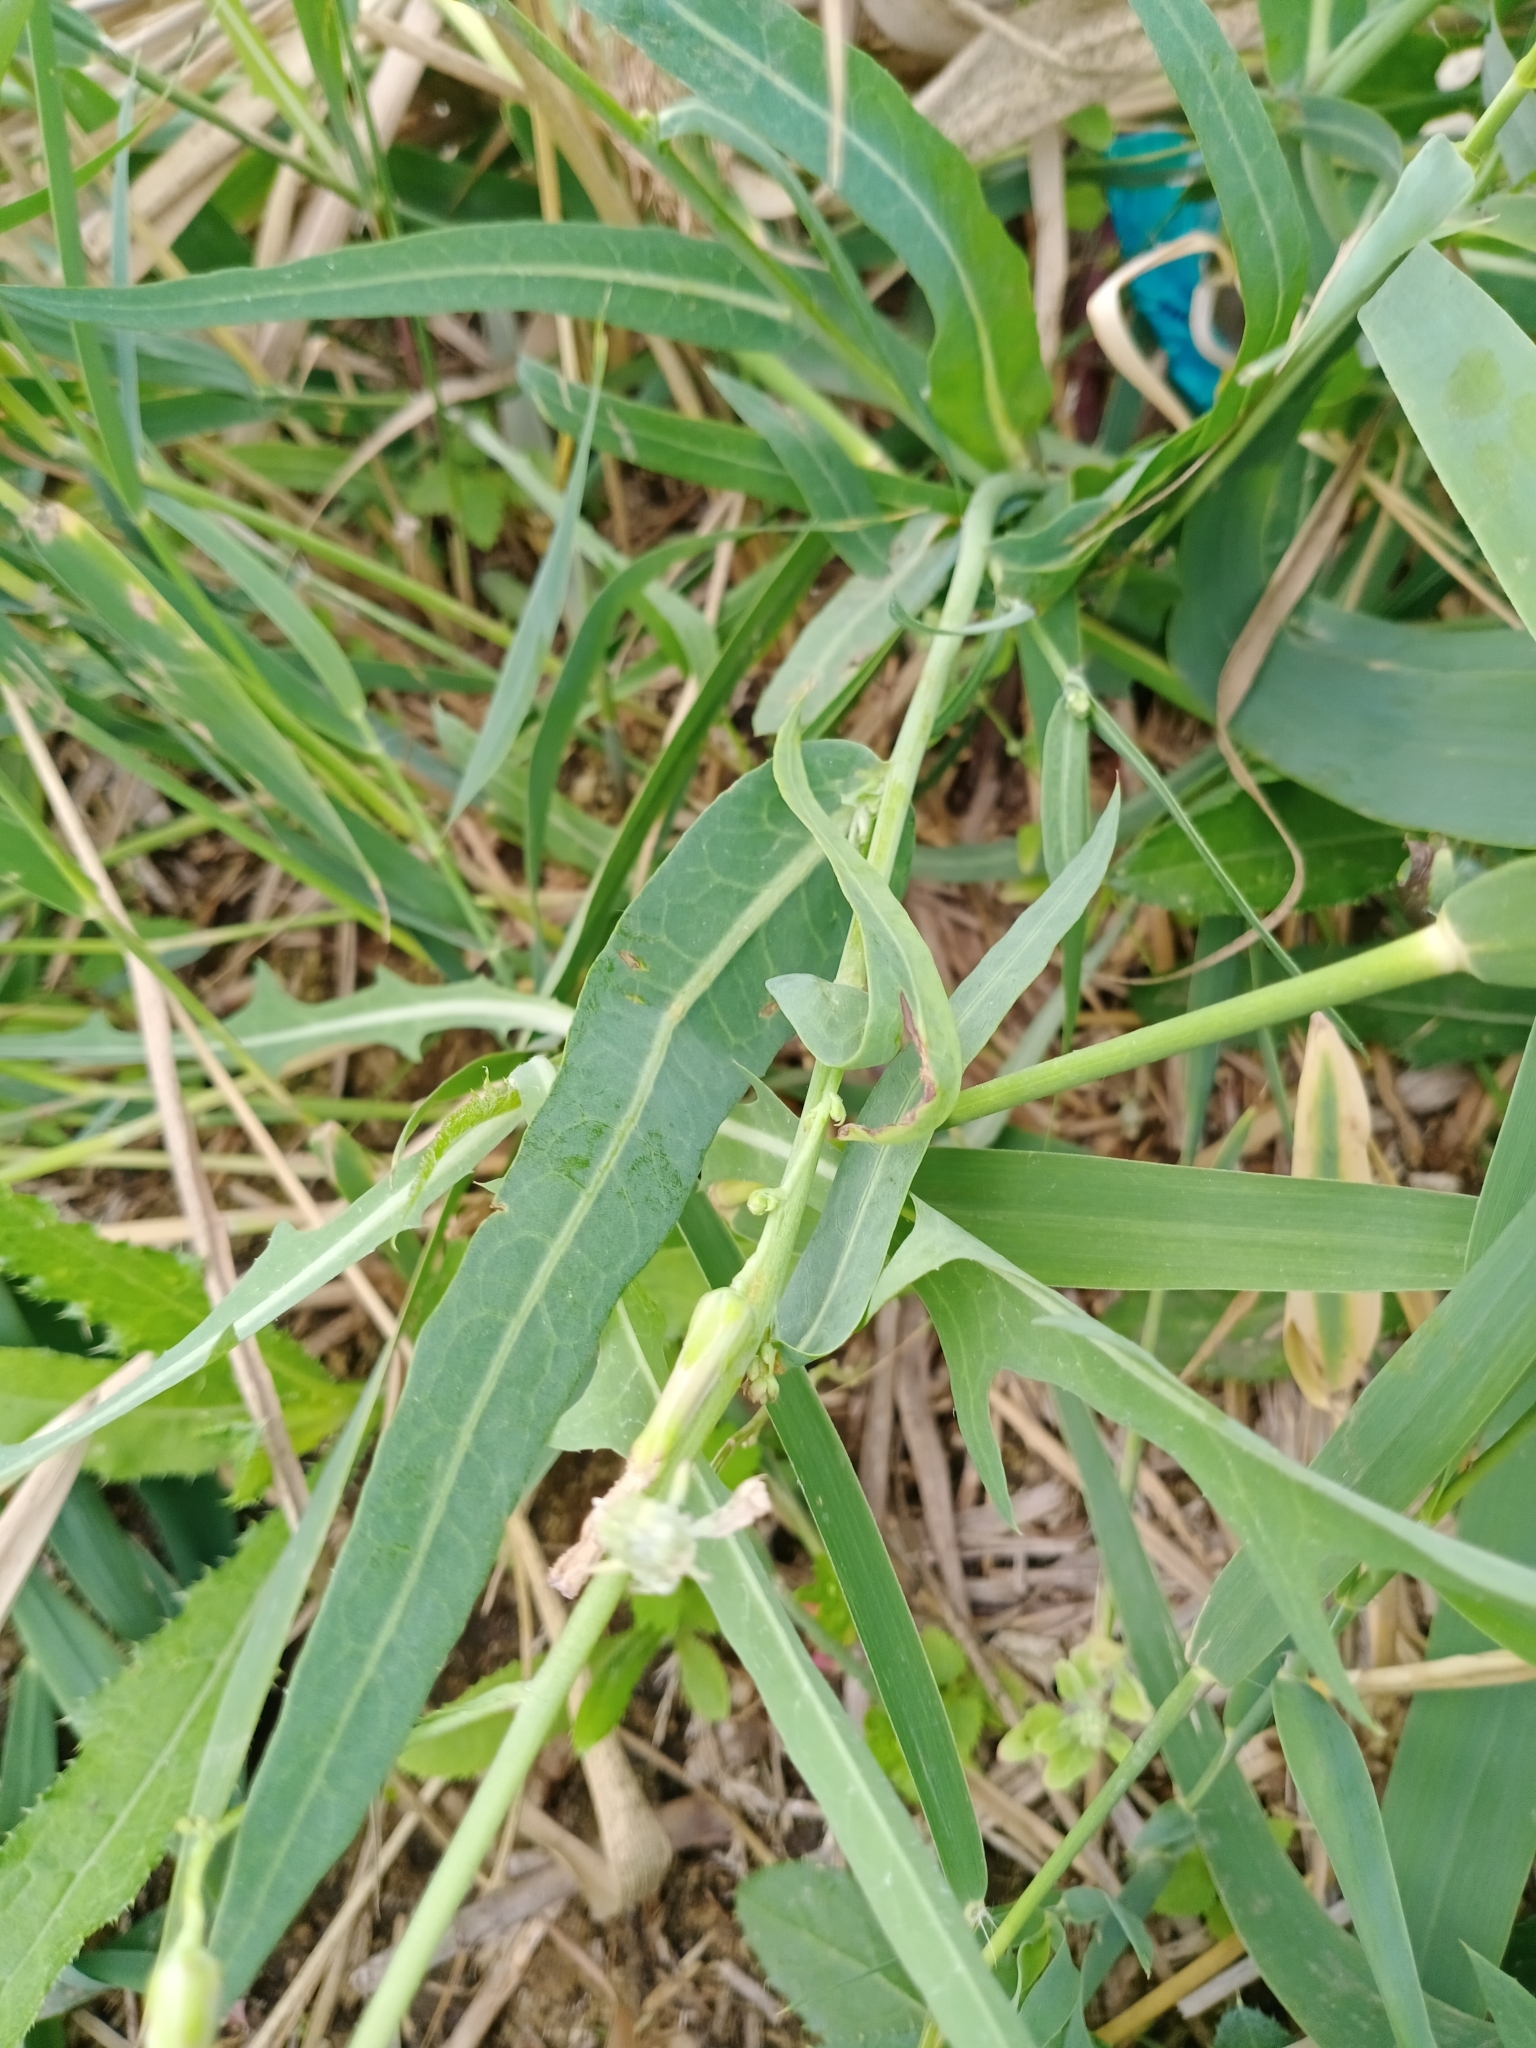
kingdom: Plantae
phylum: Tracheophyta
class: Magnoliopsida
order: Asterales
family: Asteraceae
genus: Lactuca
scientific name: Lactuca tatarica
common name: Blue lettuce
